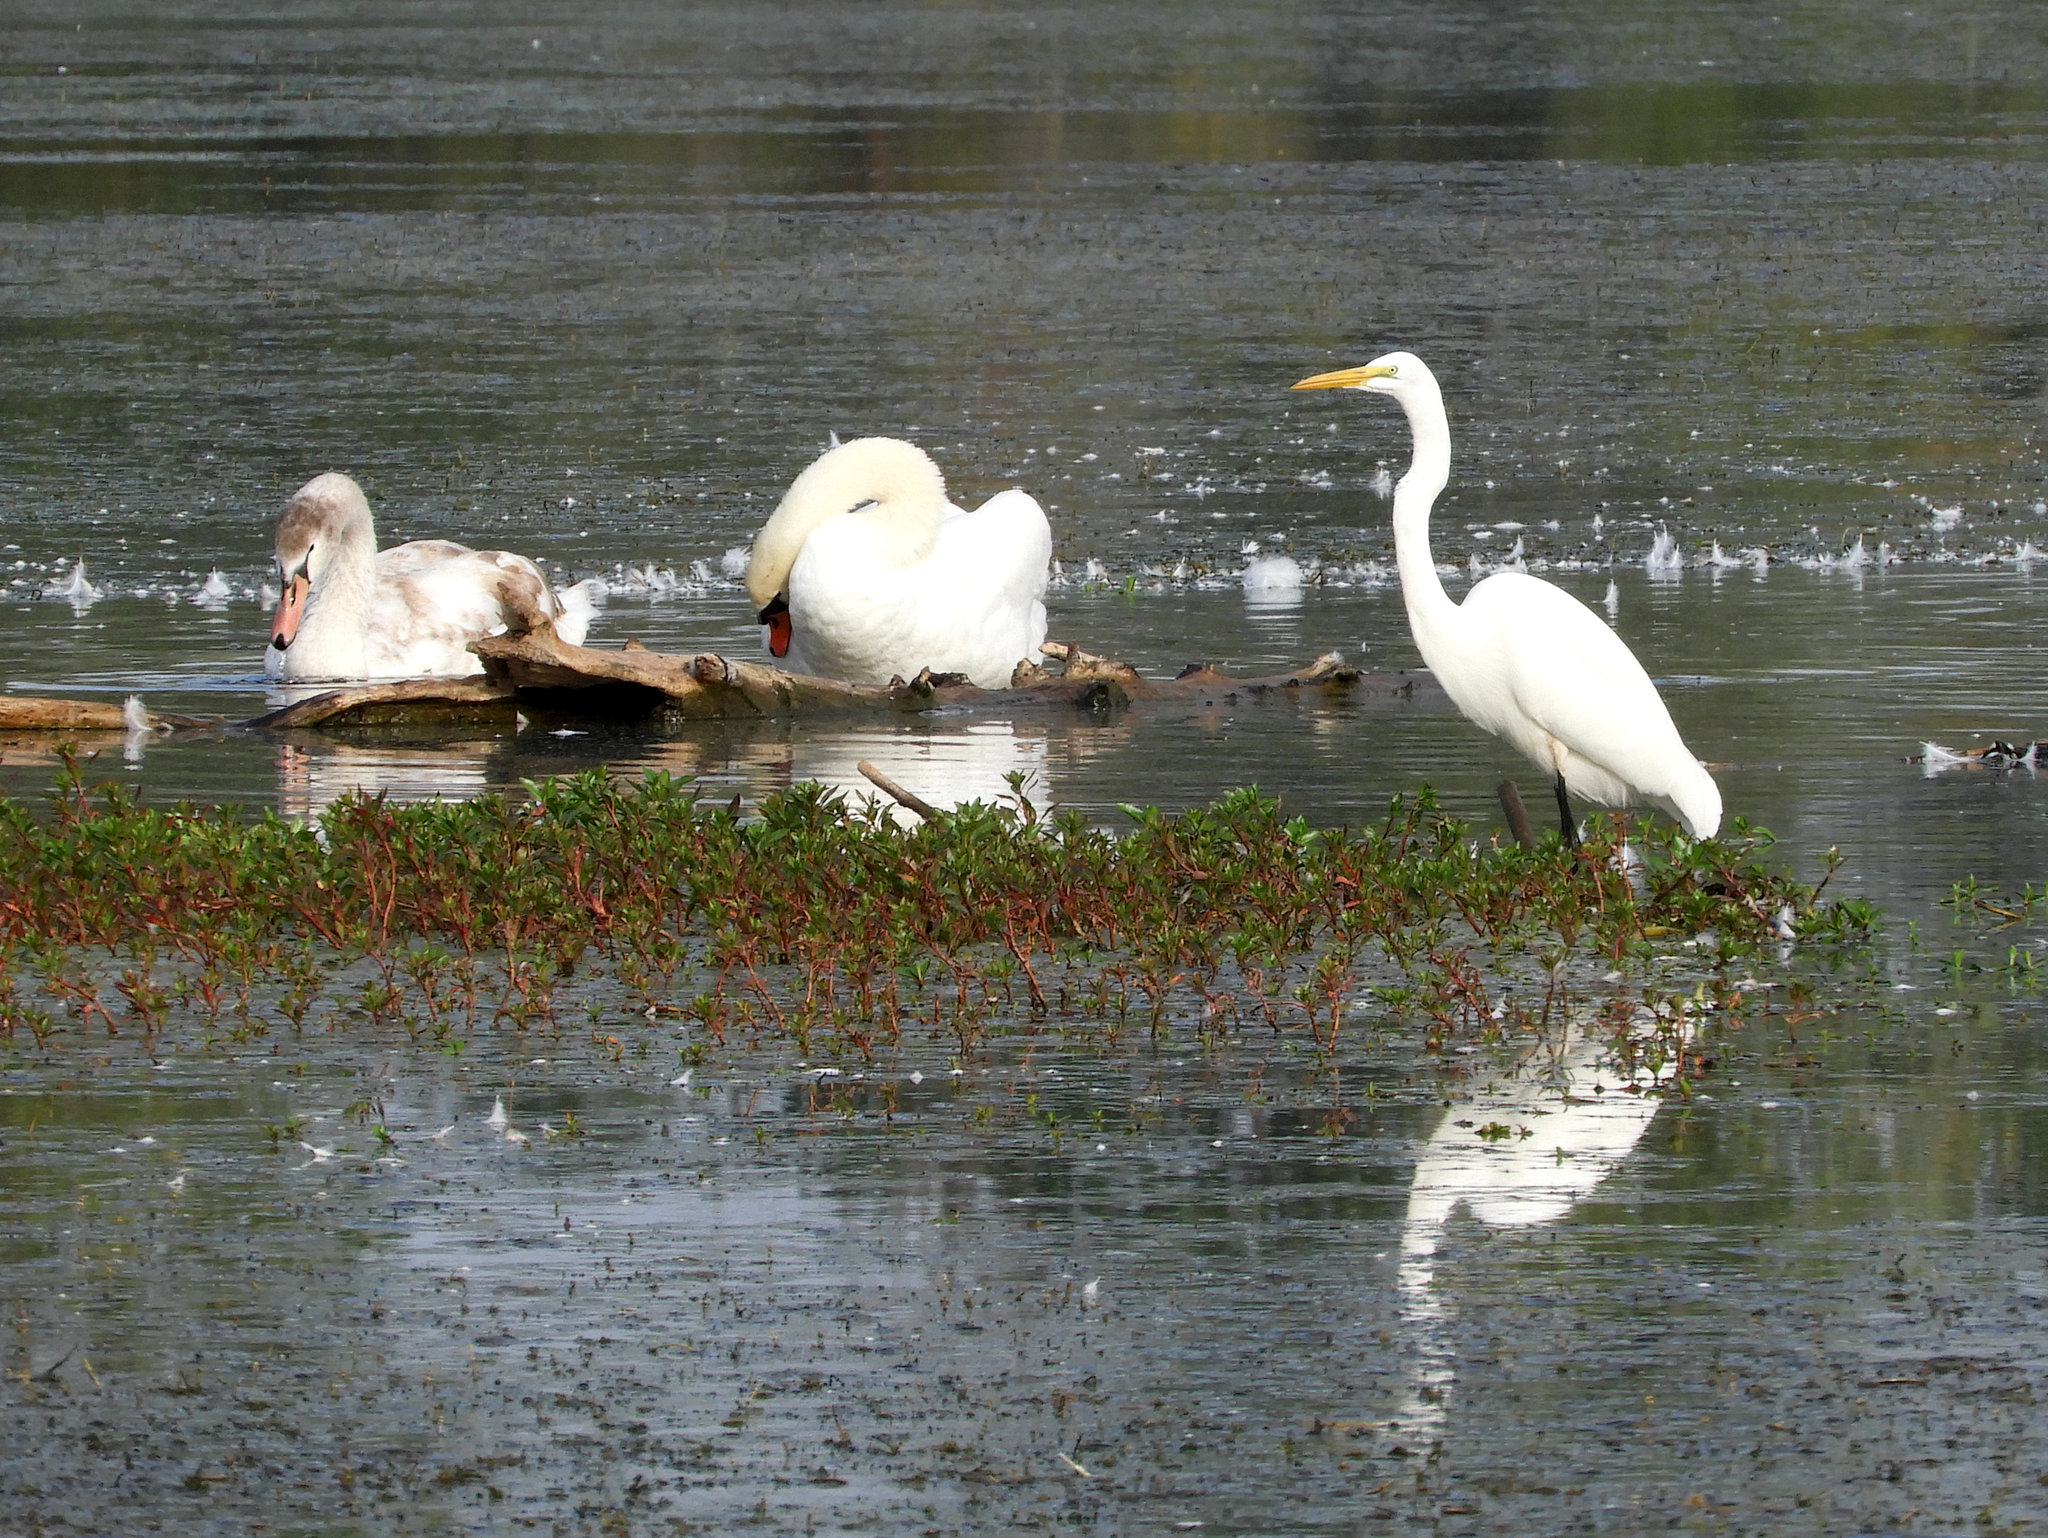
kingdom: Animalia
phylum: Chordata
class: Aves
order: Pelecaniformes
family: Ardeidae
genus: Ardea
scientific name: Ardea alba
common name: Great egret
